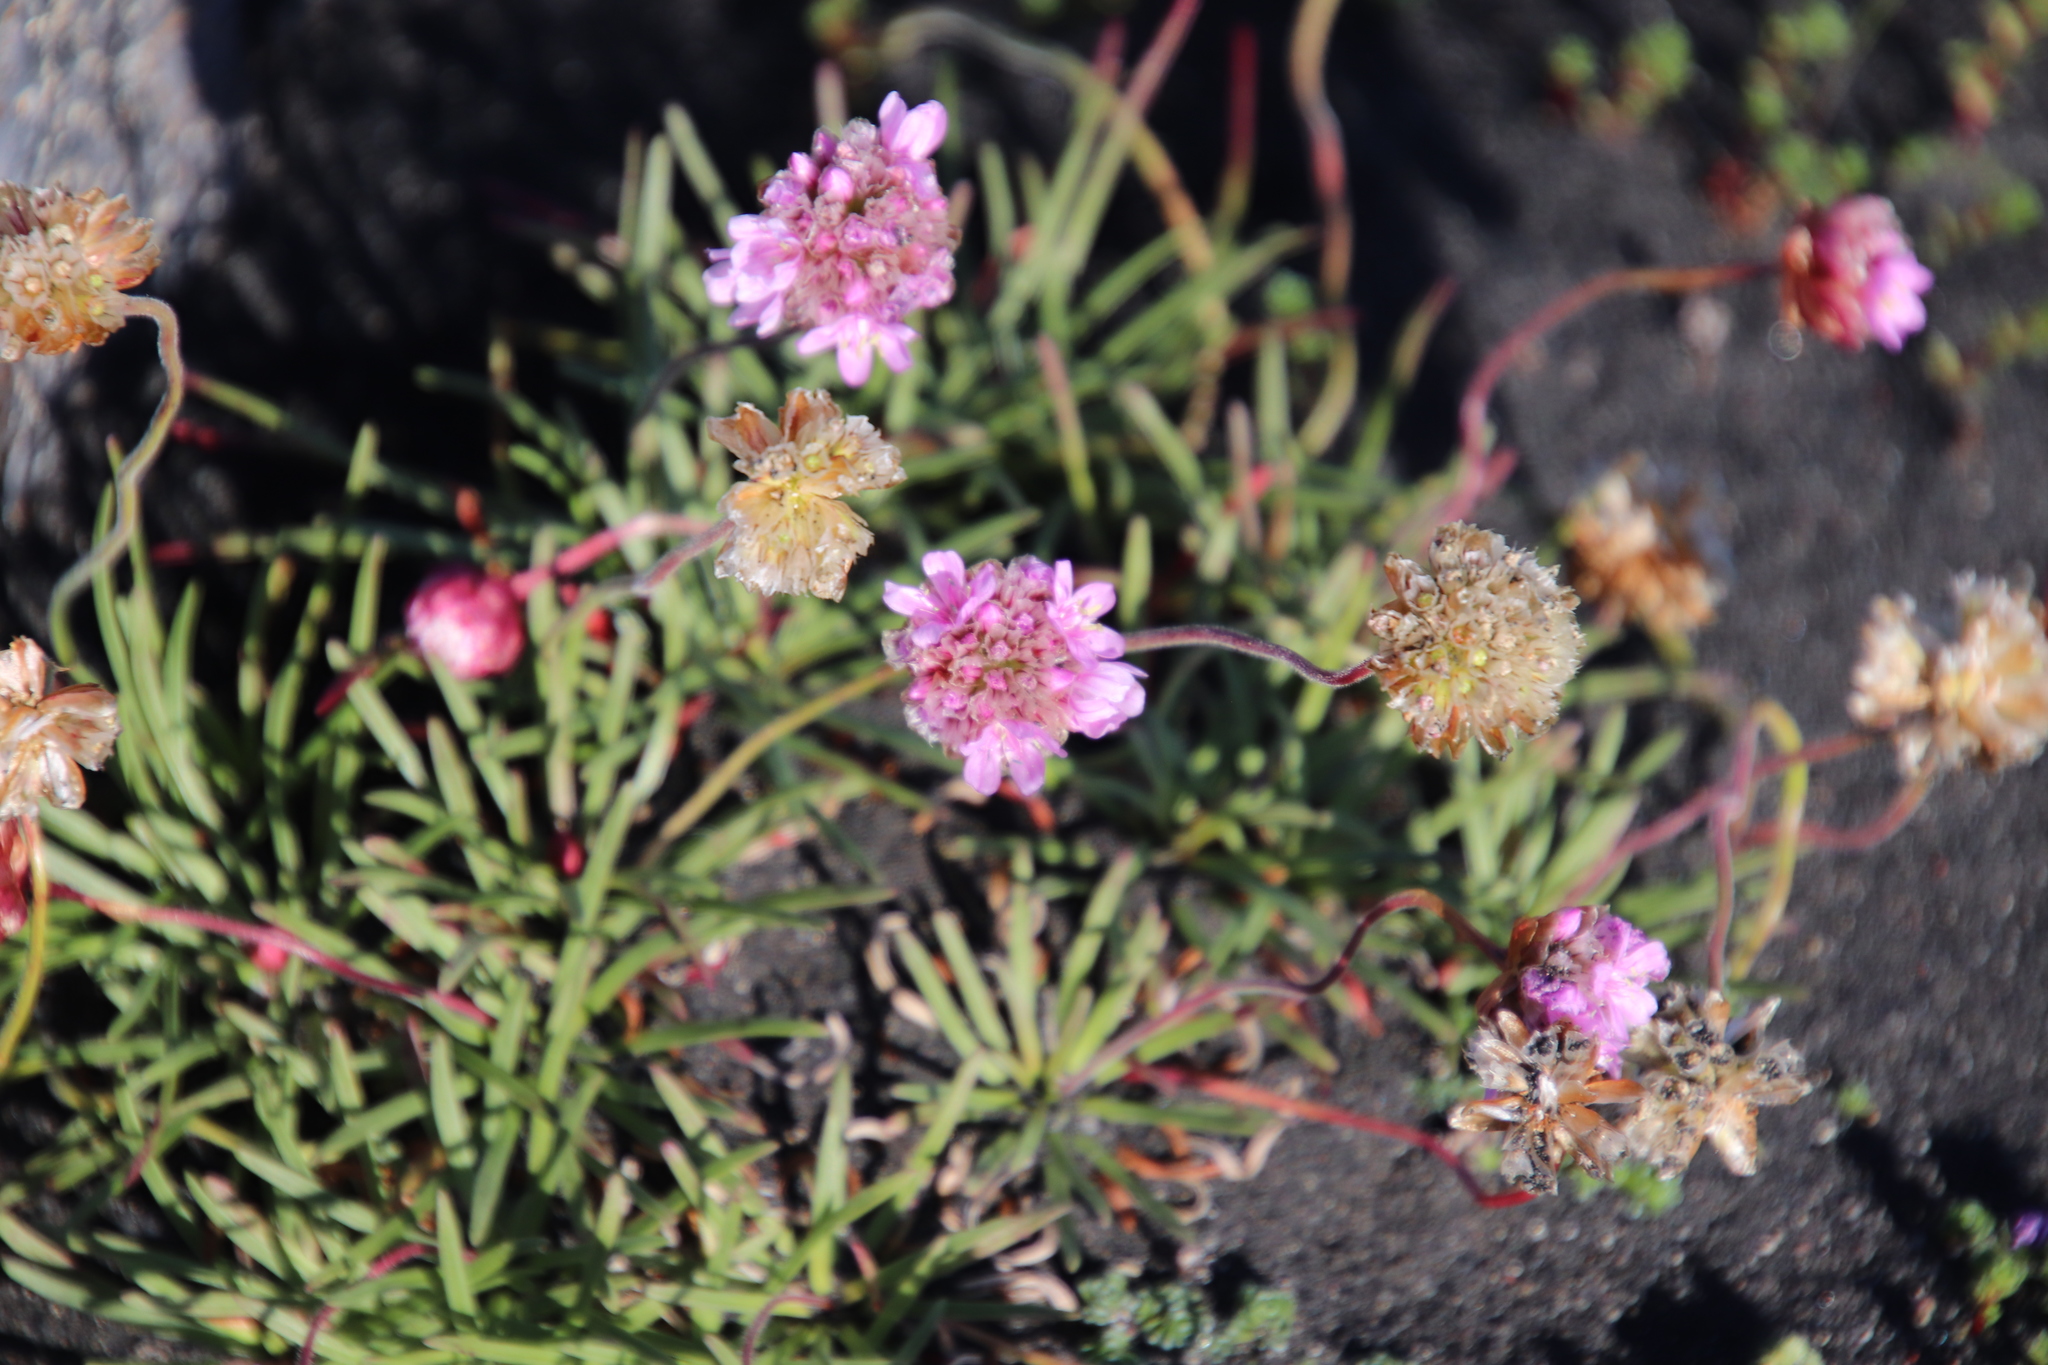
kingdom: Plantae
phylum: Tracheophyta
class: Magnoliopsida
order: Caryophyllales
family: Plumbaginaceae
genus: Armeria
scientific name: Armeria maritima
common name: Thrift
